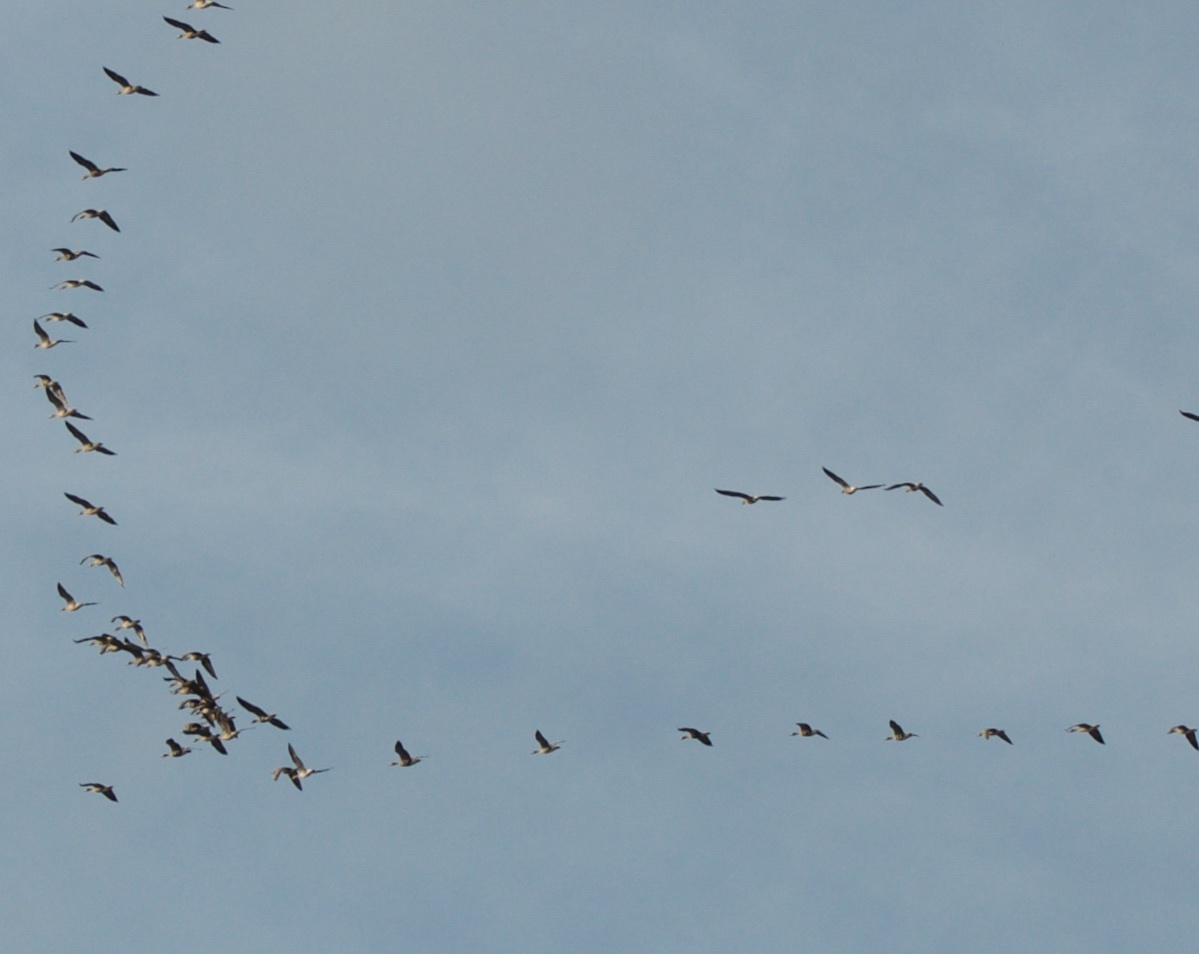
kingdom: Animalia
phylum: Chordata
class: Aves
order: Anseriformes
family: Anatidae
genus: Anser
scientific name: Anser albifrons
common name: Greater white-fronted goose
